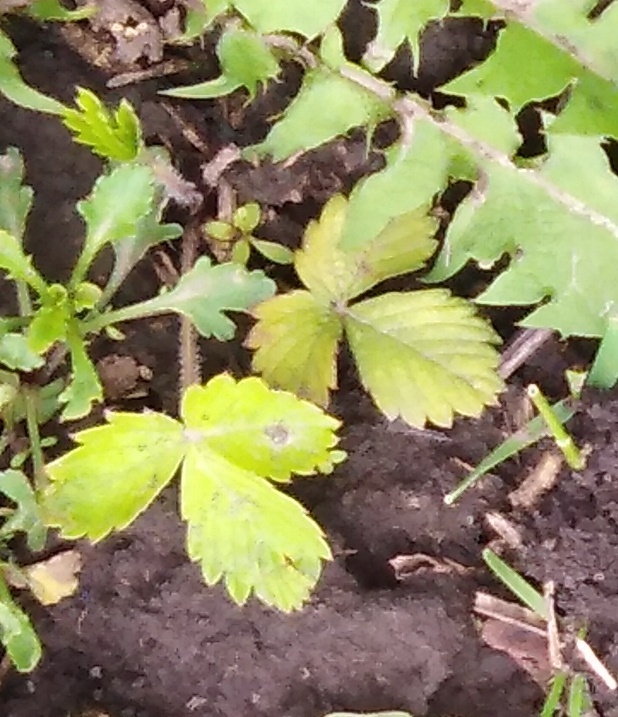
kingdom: Plantae
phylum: Tracheophyta
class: Magnoliopsida
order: Rosales
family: Rosaceae
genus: Fragaria
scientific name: Fragaria viridis
